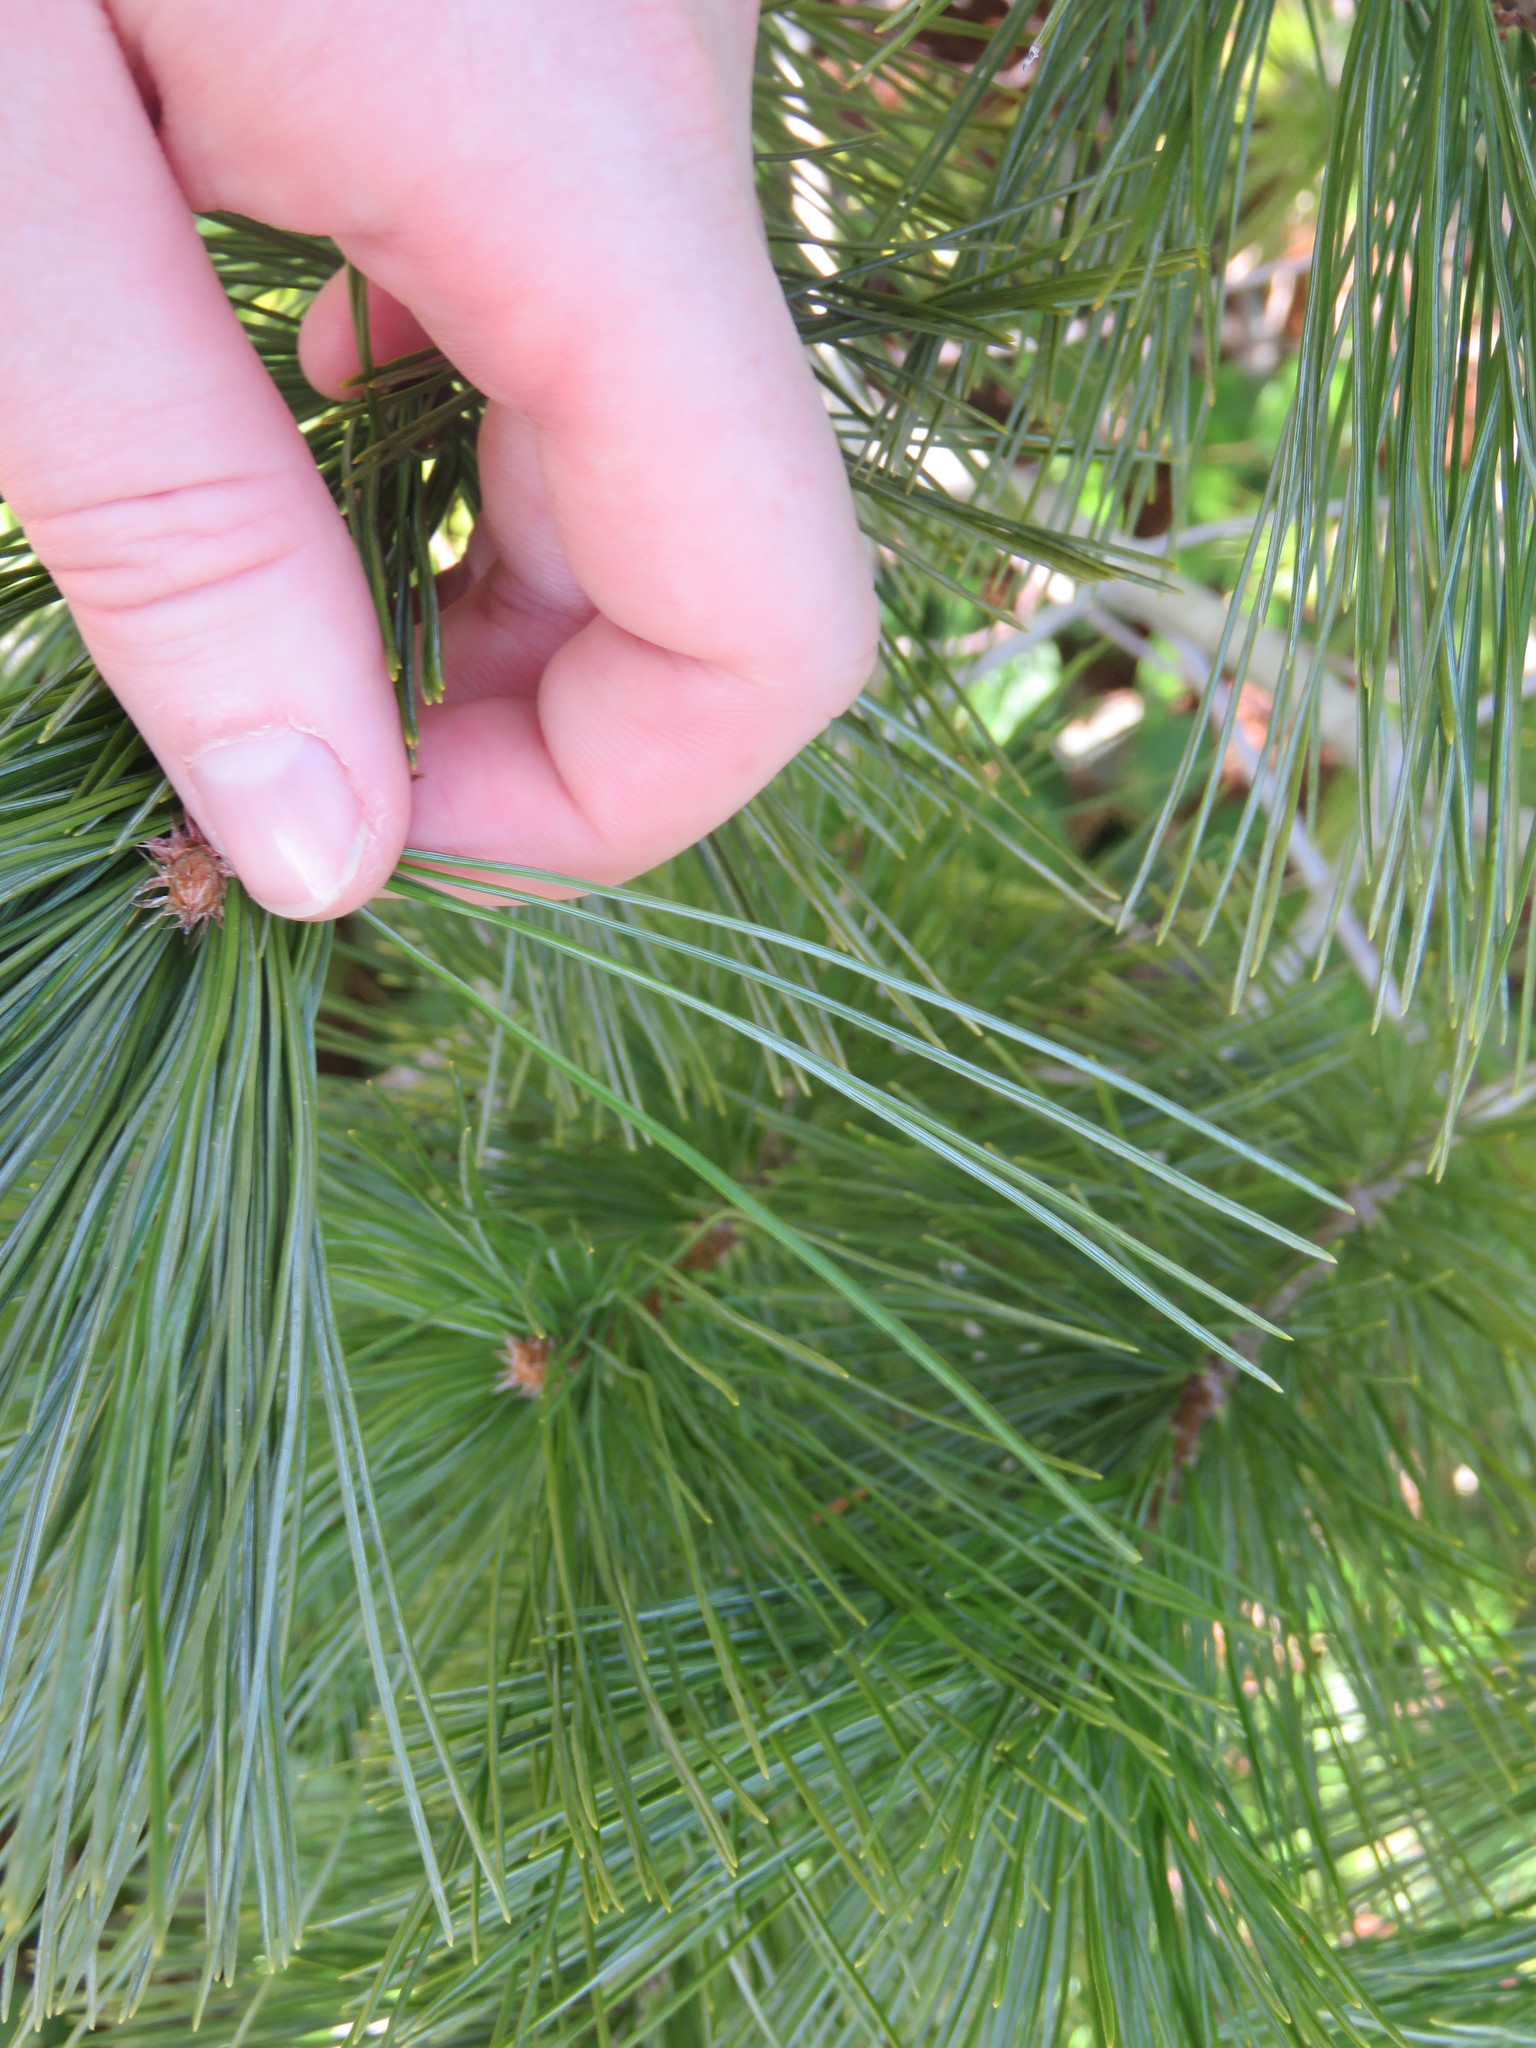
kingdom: Plantae
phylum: Tracheophyta
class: Pinopsida
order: Pinales
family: Pinaceae
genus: Pinus
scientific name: Pinus monticola
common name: Western white pine
